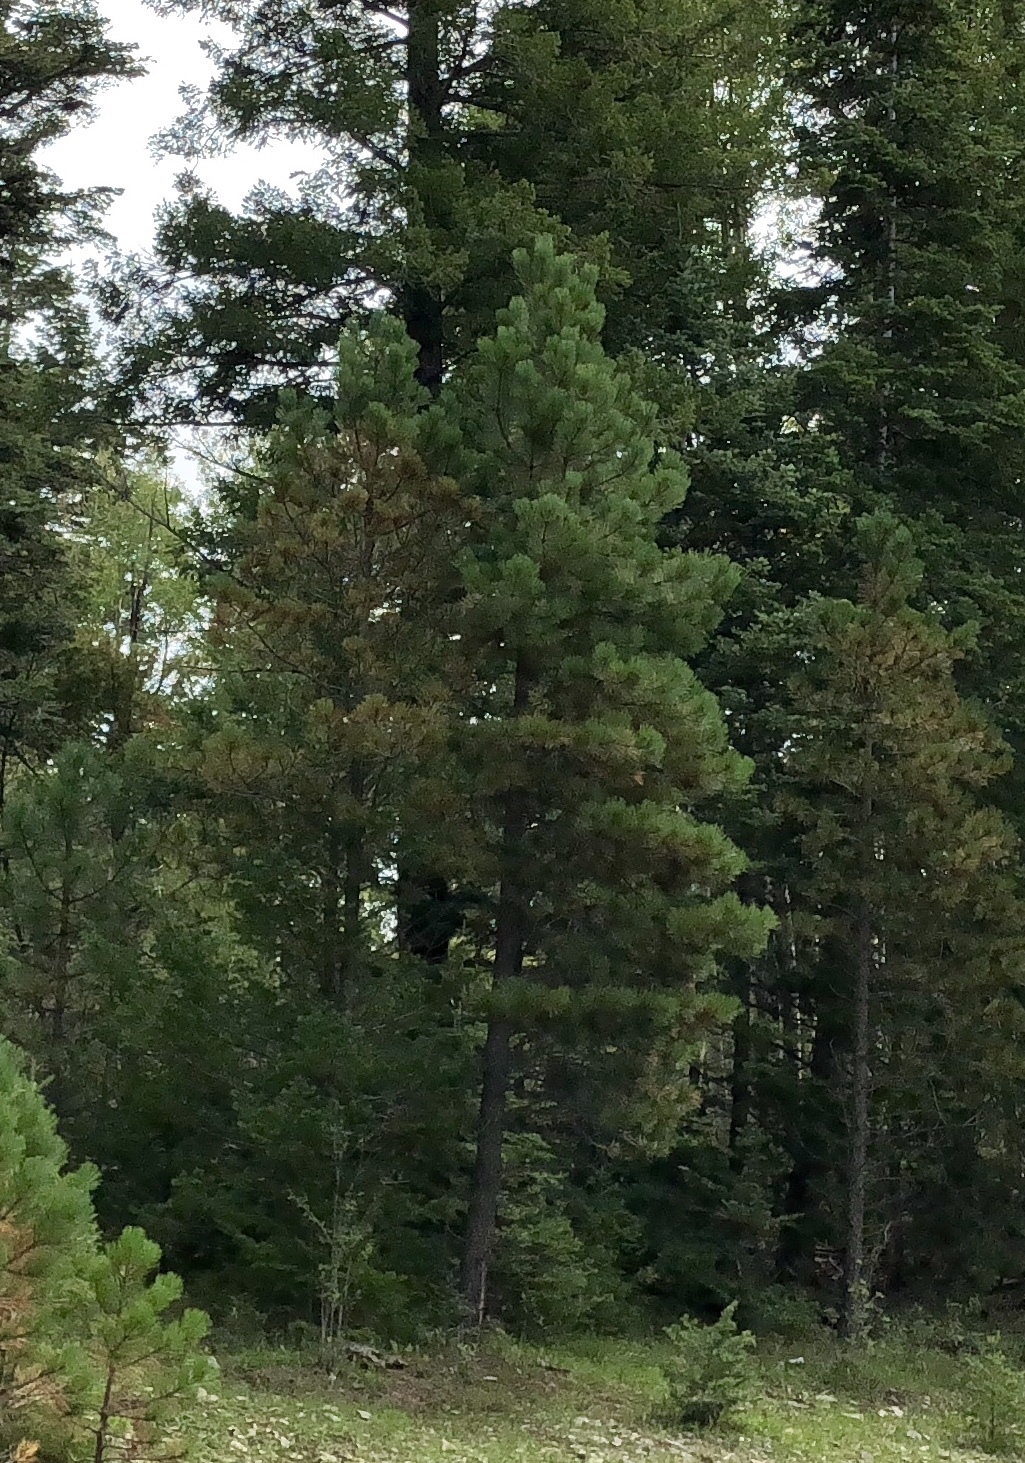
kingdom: Plantae
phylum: Tracheophyta
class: Pinopsida
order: Pinales
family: Pinaceae
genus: Pinus
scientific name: Pinus ponderosa
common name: Western yellow-pine
